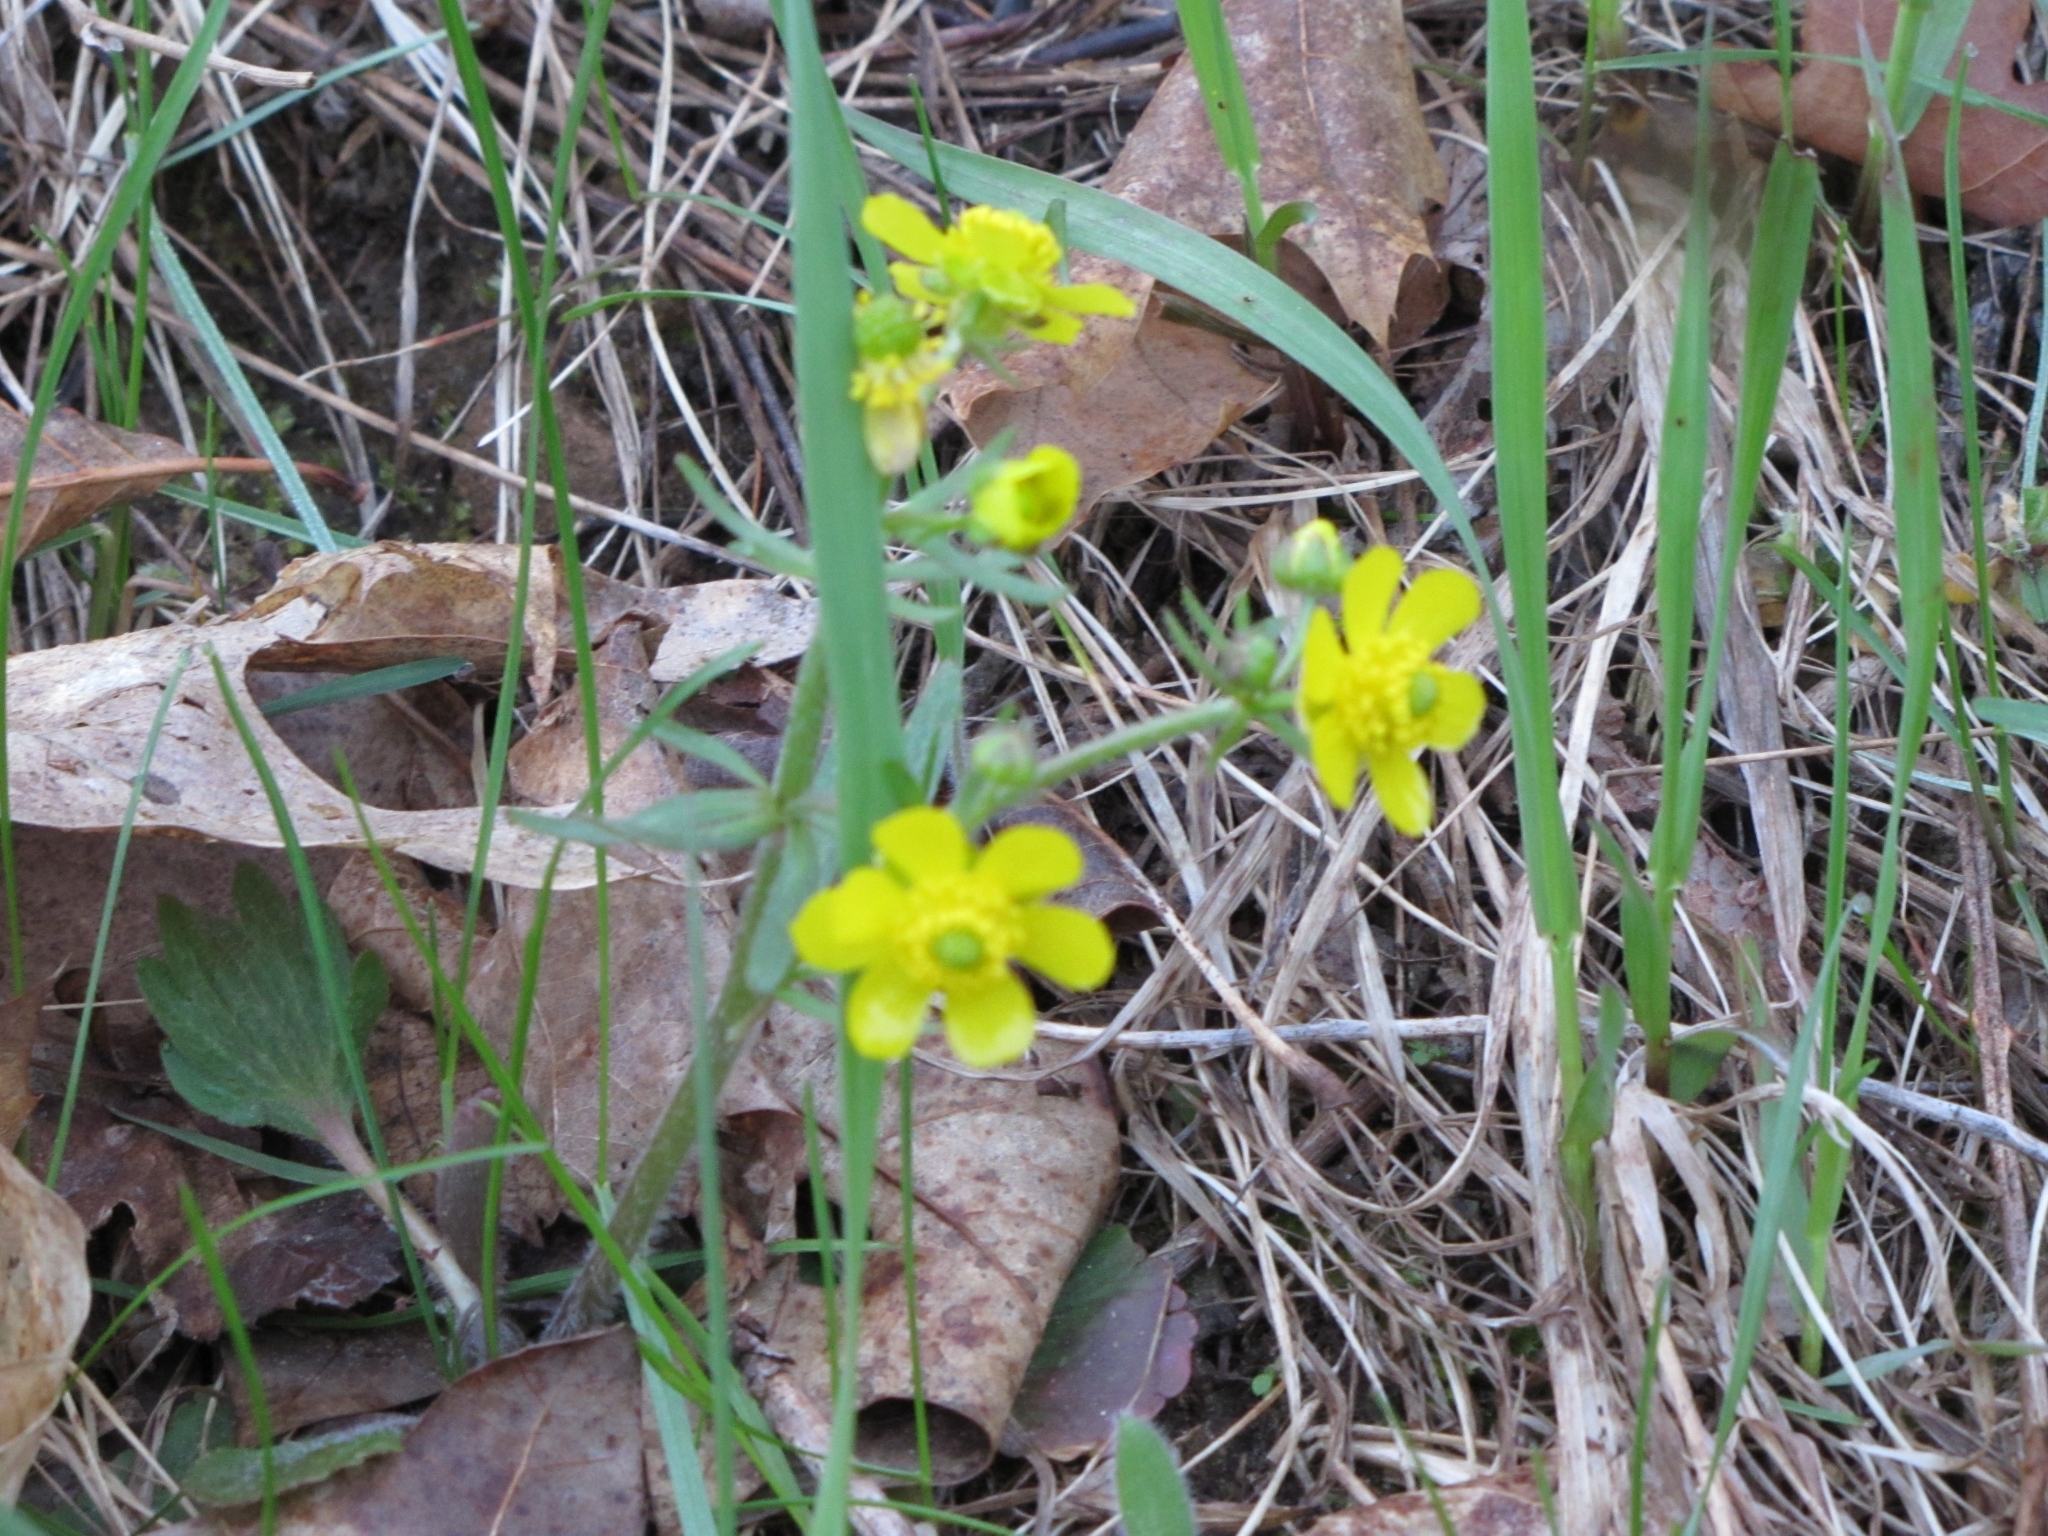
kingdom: Plantae
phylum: Tracheophyta
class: Magnoliopsida
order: Ranunculales
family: Ranunculaceae
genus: Ranunculus
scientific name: Ranunculus fascicularis
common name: Early buttercup
